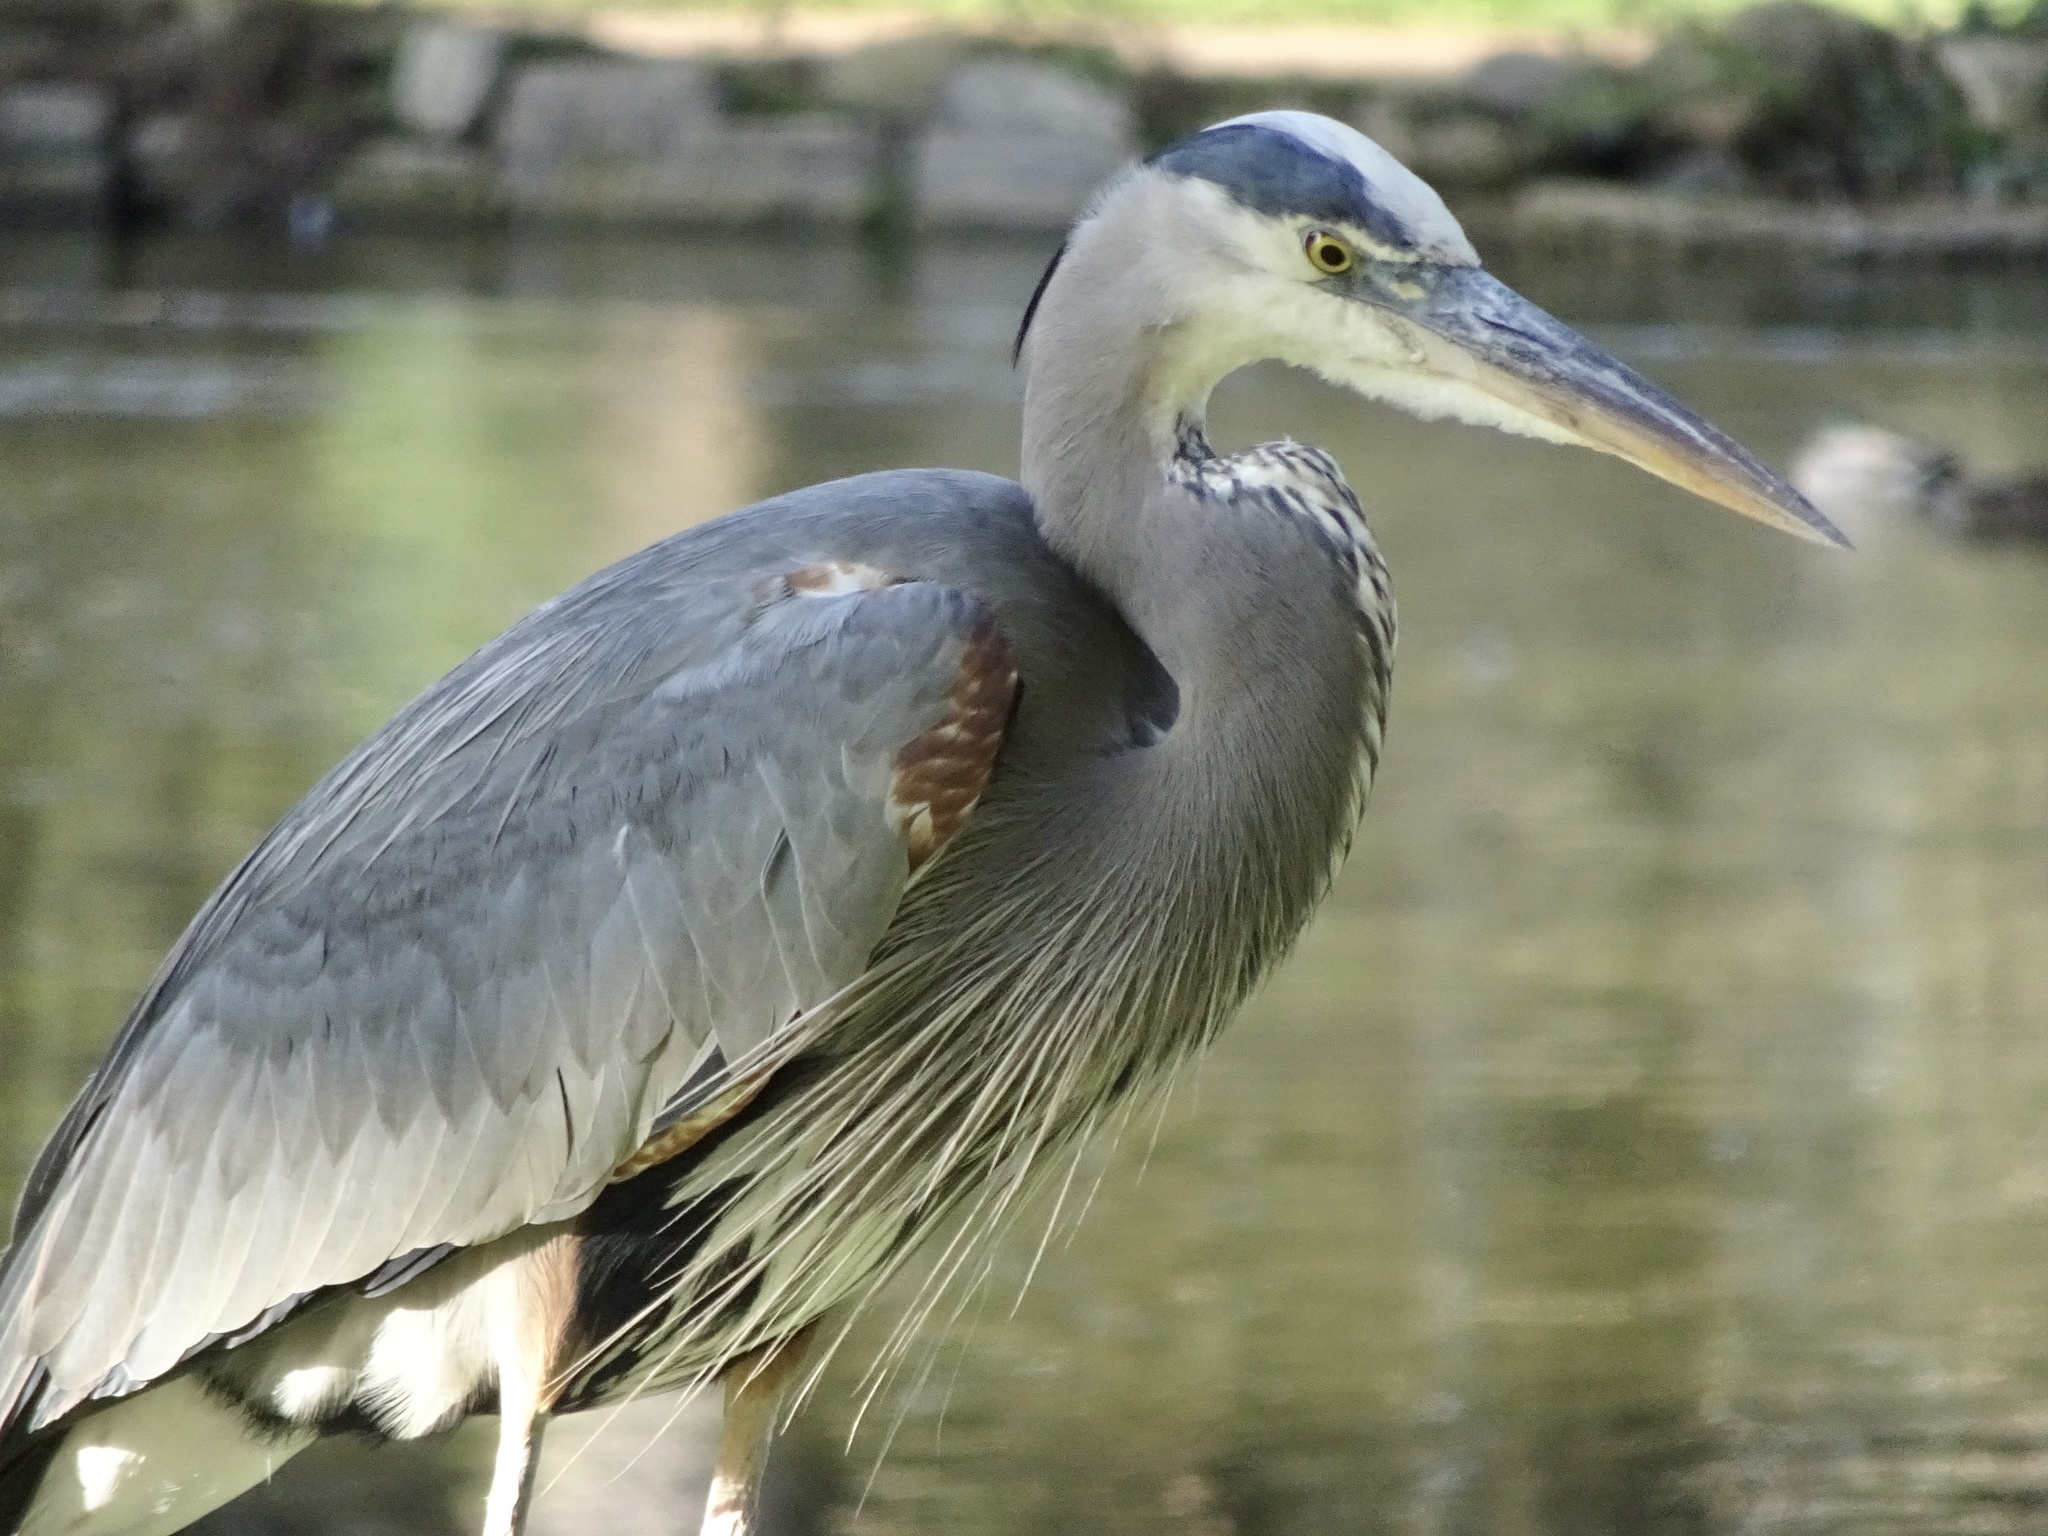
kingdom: Animalia
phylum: Chordata
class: Aves
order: Pelecaniformes
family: Ardeidae
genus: Ardea
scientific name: Ardea herodias
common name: Great blue heron
